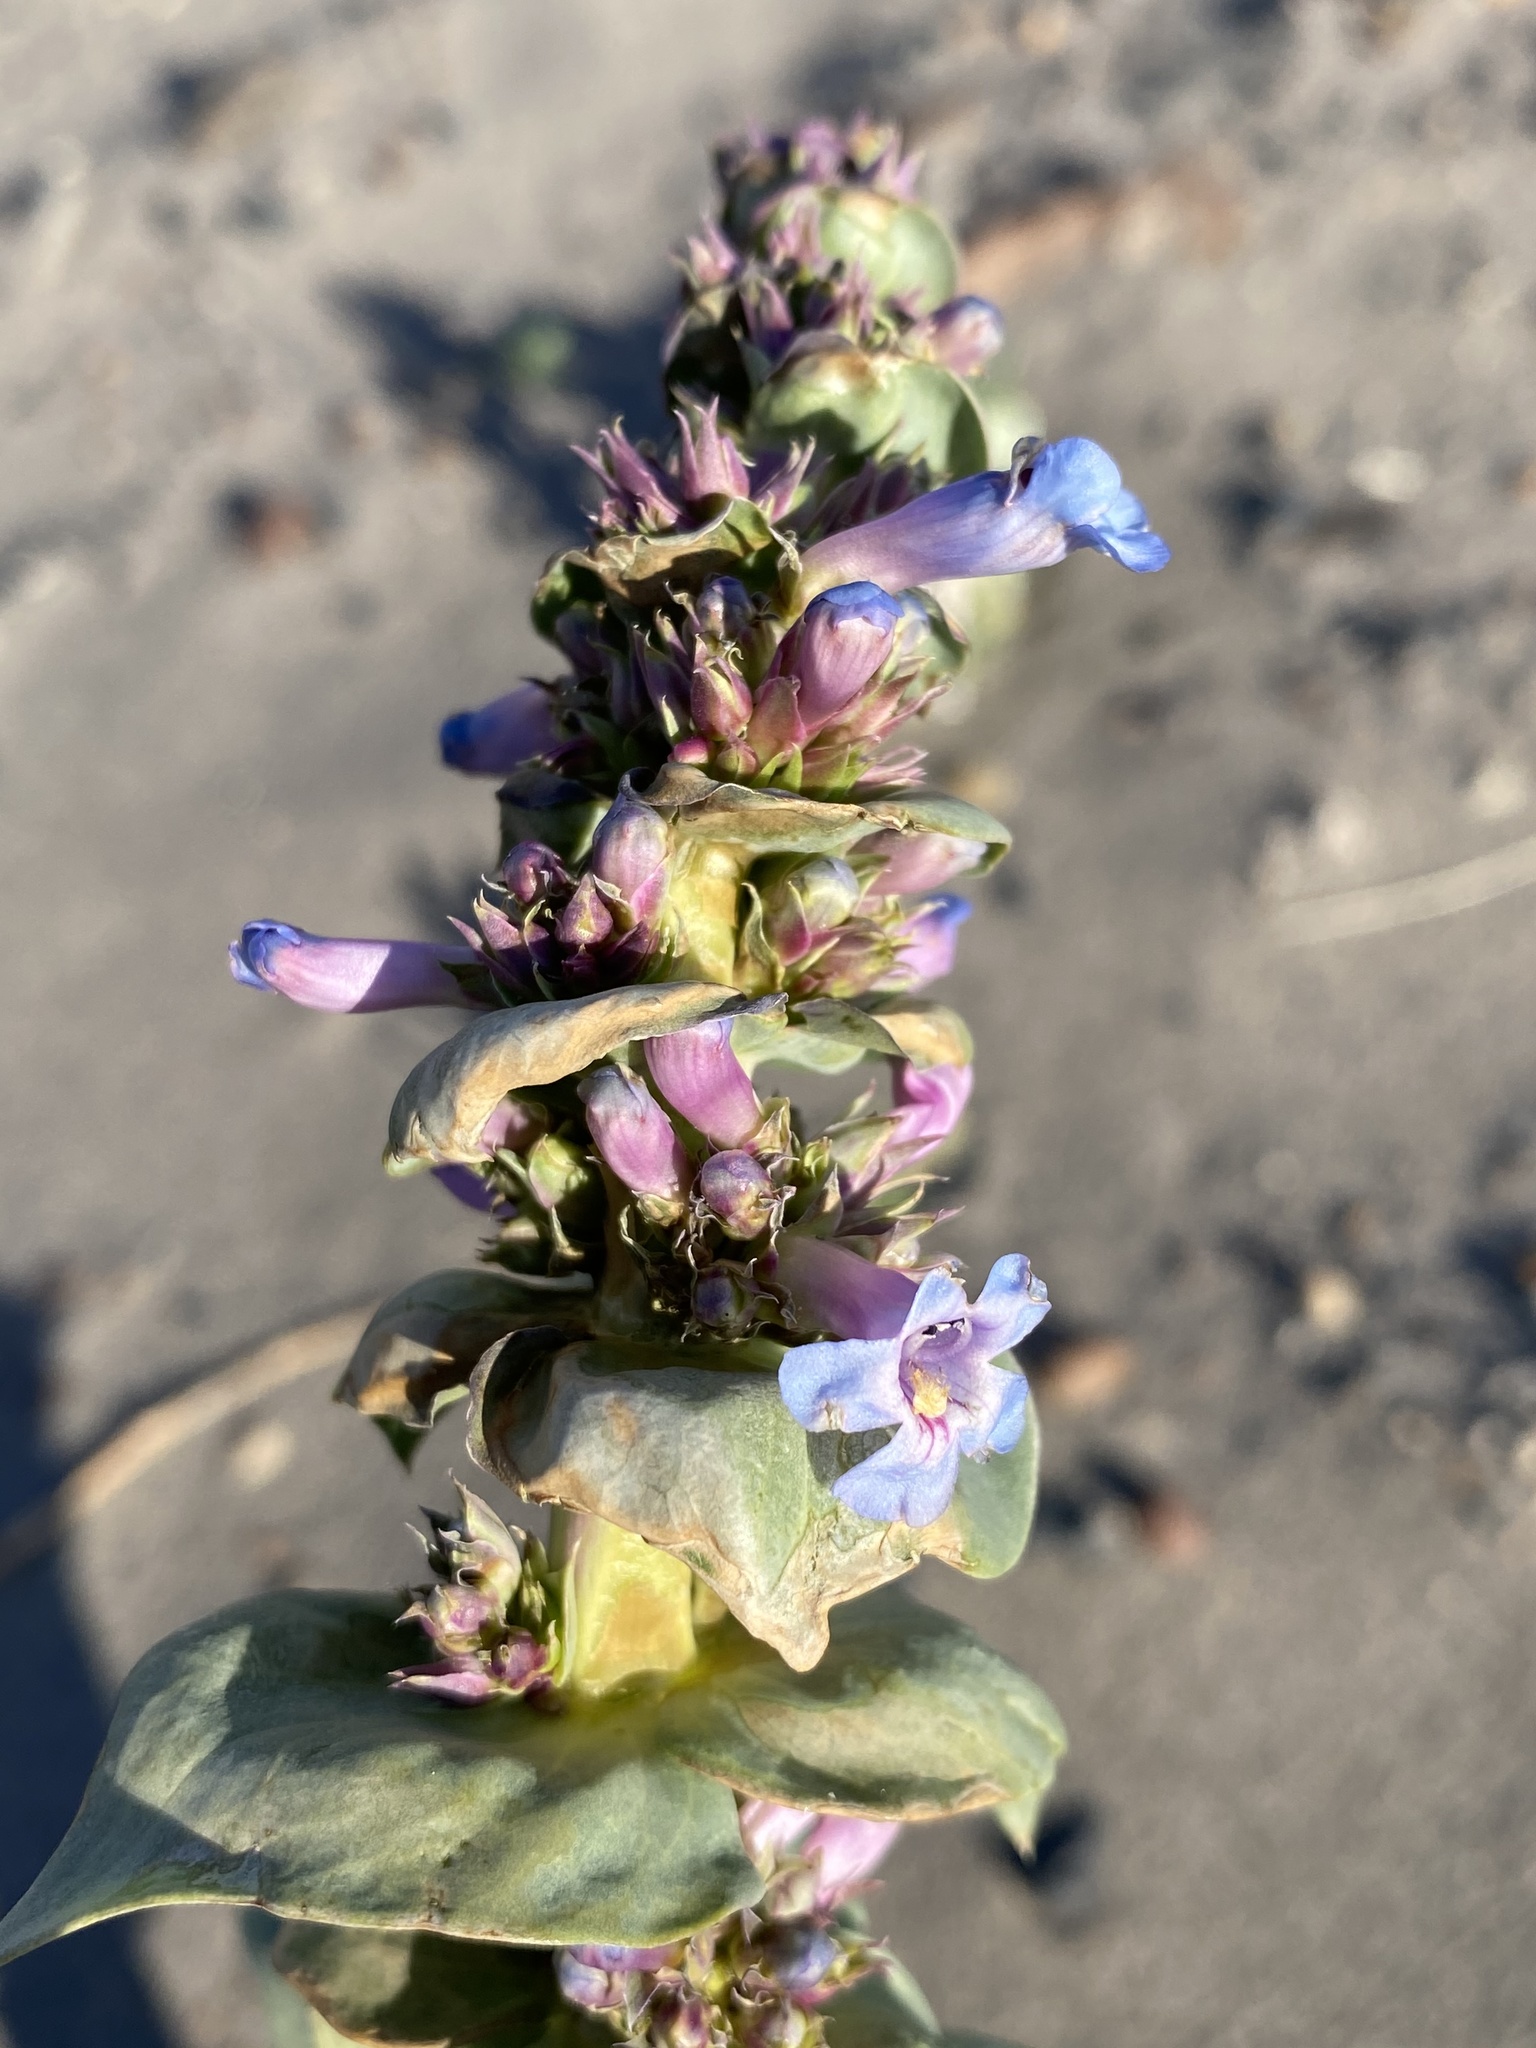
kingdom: Plantae
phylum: Tracheophyta
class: Magnoliopsida
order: Lamiales
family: Plantaginaceae
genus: Penstemon
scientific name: Penstemon acuminatus
